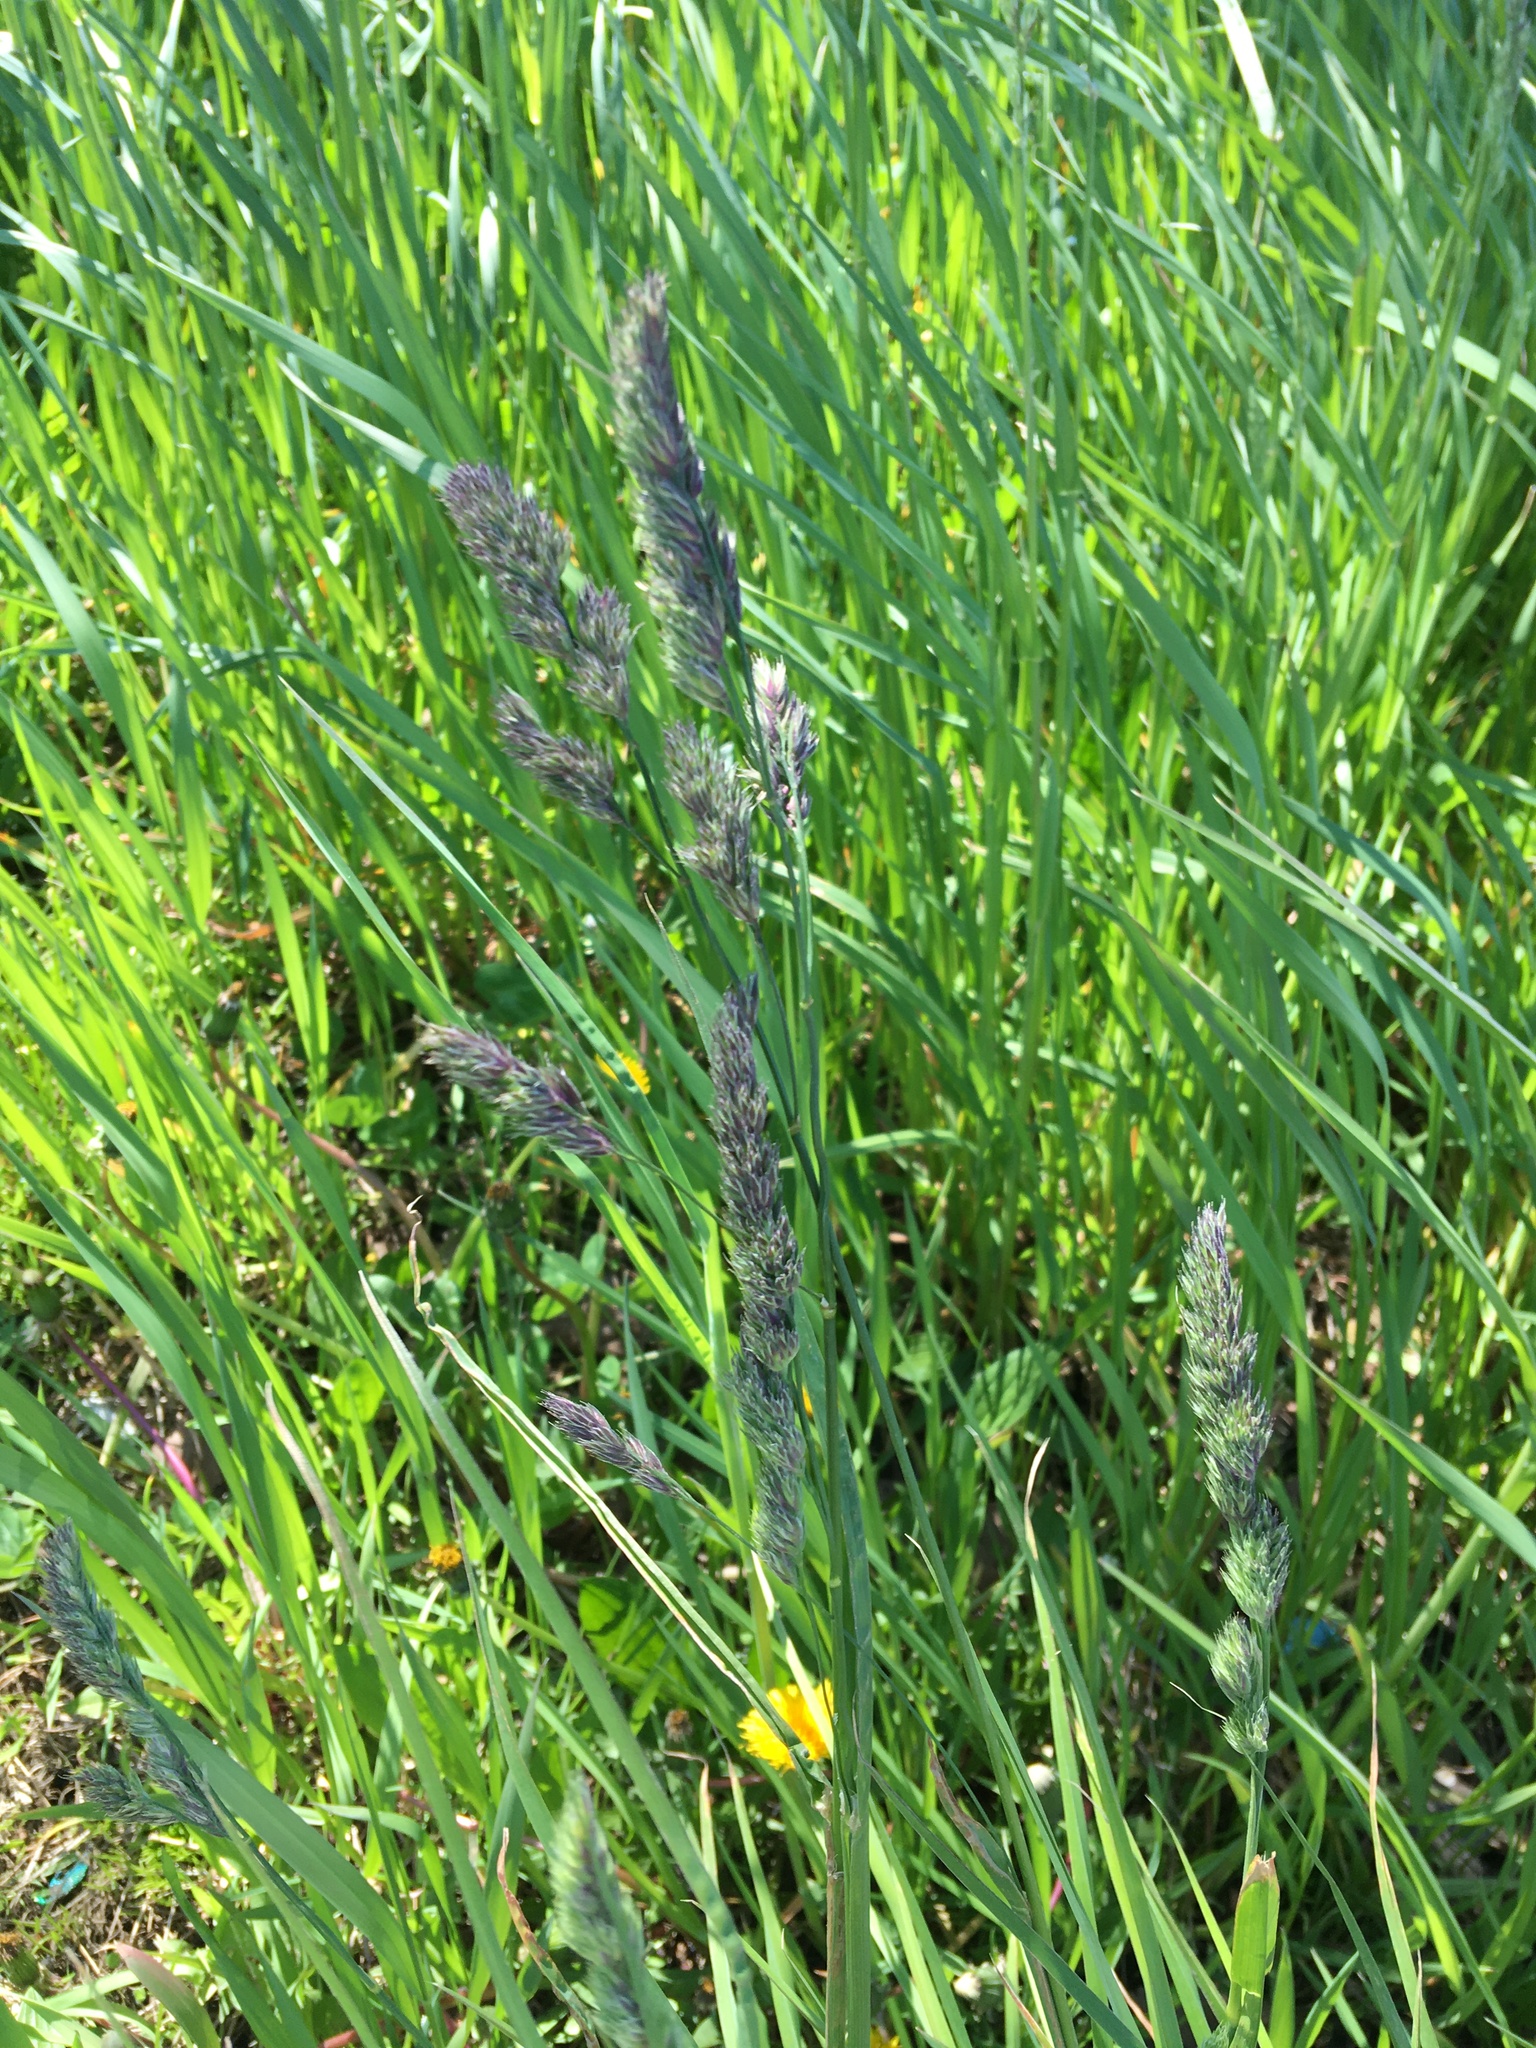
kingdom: Plantae
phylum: Tracheophyta
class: Liliopsida
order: Poales
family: Poaceae
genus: Dactylis
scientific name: Dactylis glomerata
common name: Orchardgrass
